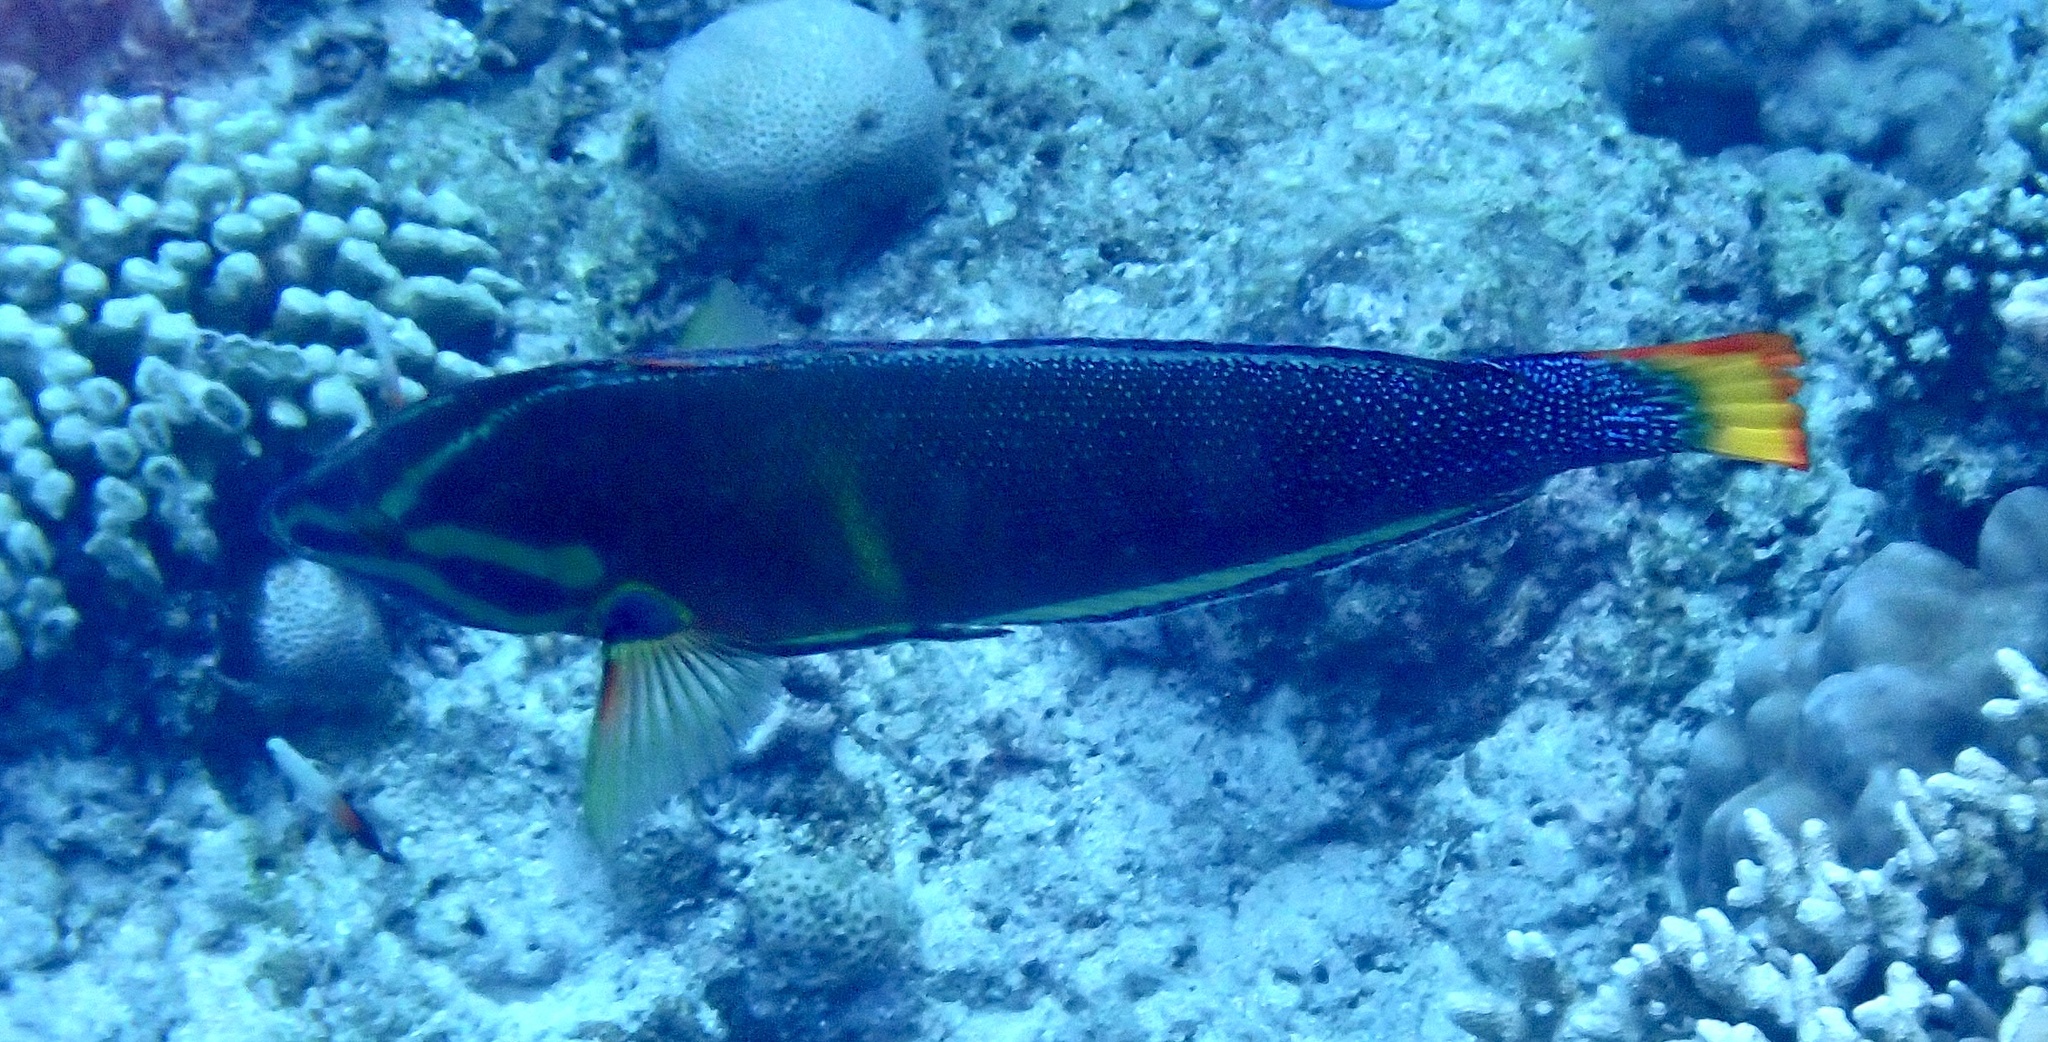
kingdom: Animalia
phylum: Chordata
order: Perciformes
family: Labridae
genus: Coris
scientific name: Coris gaimard
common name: Yellowtail coris
